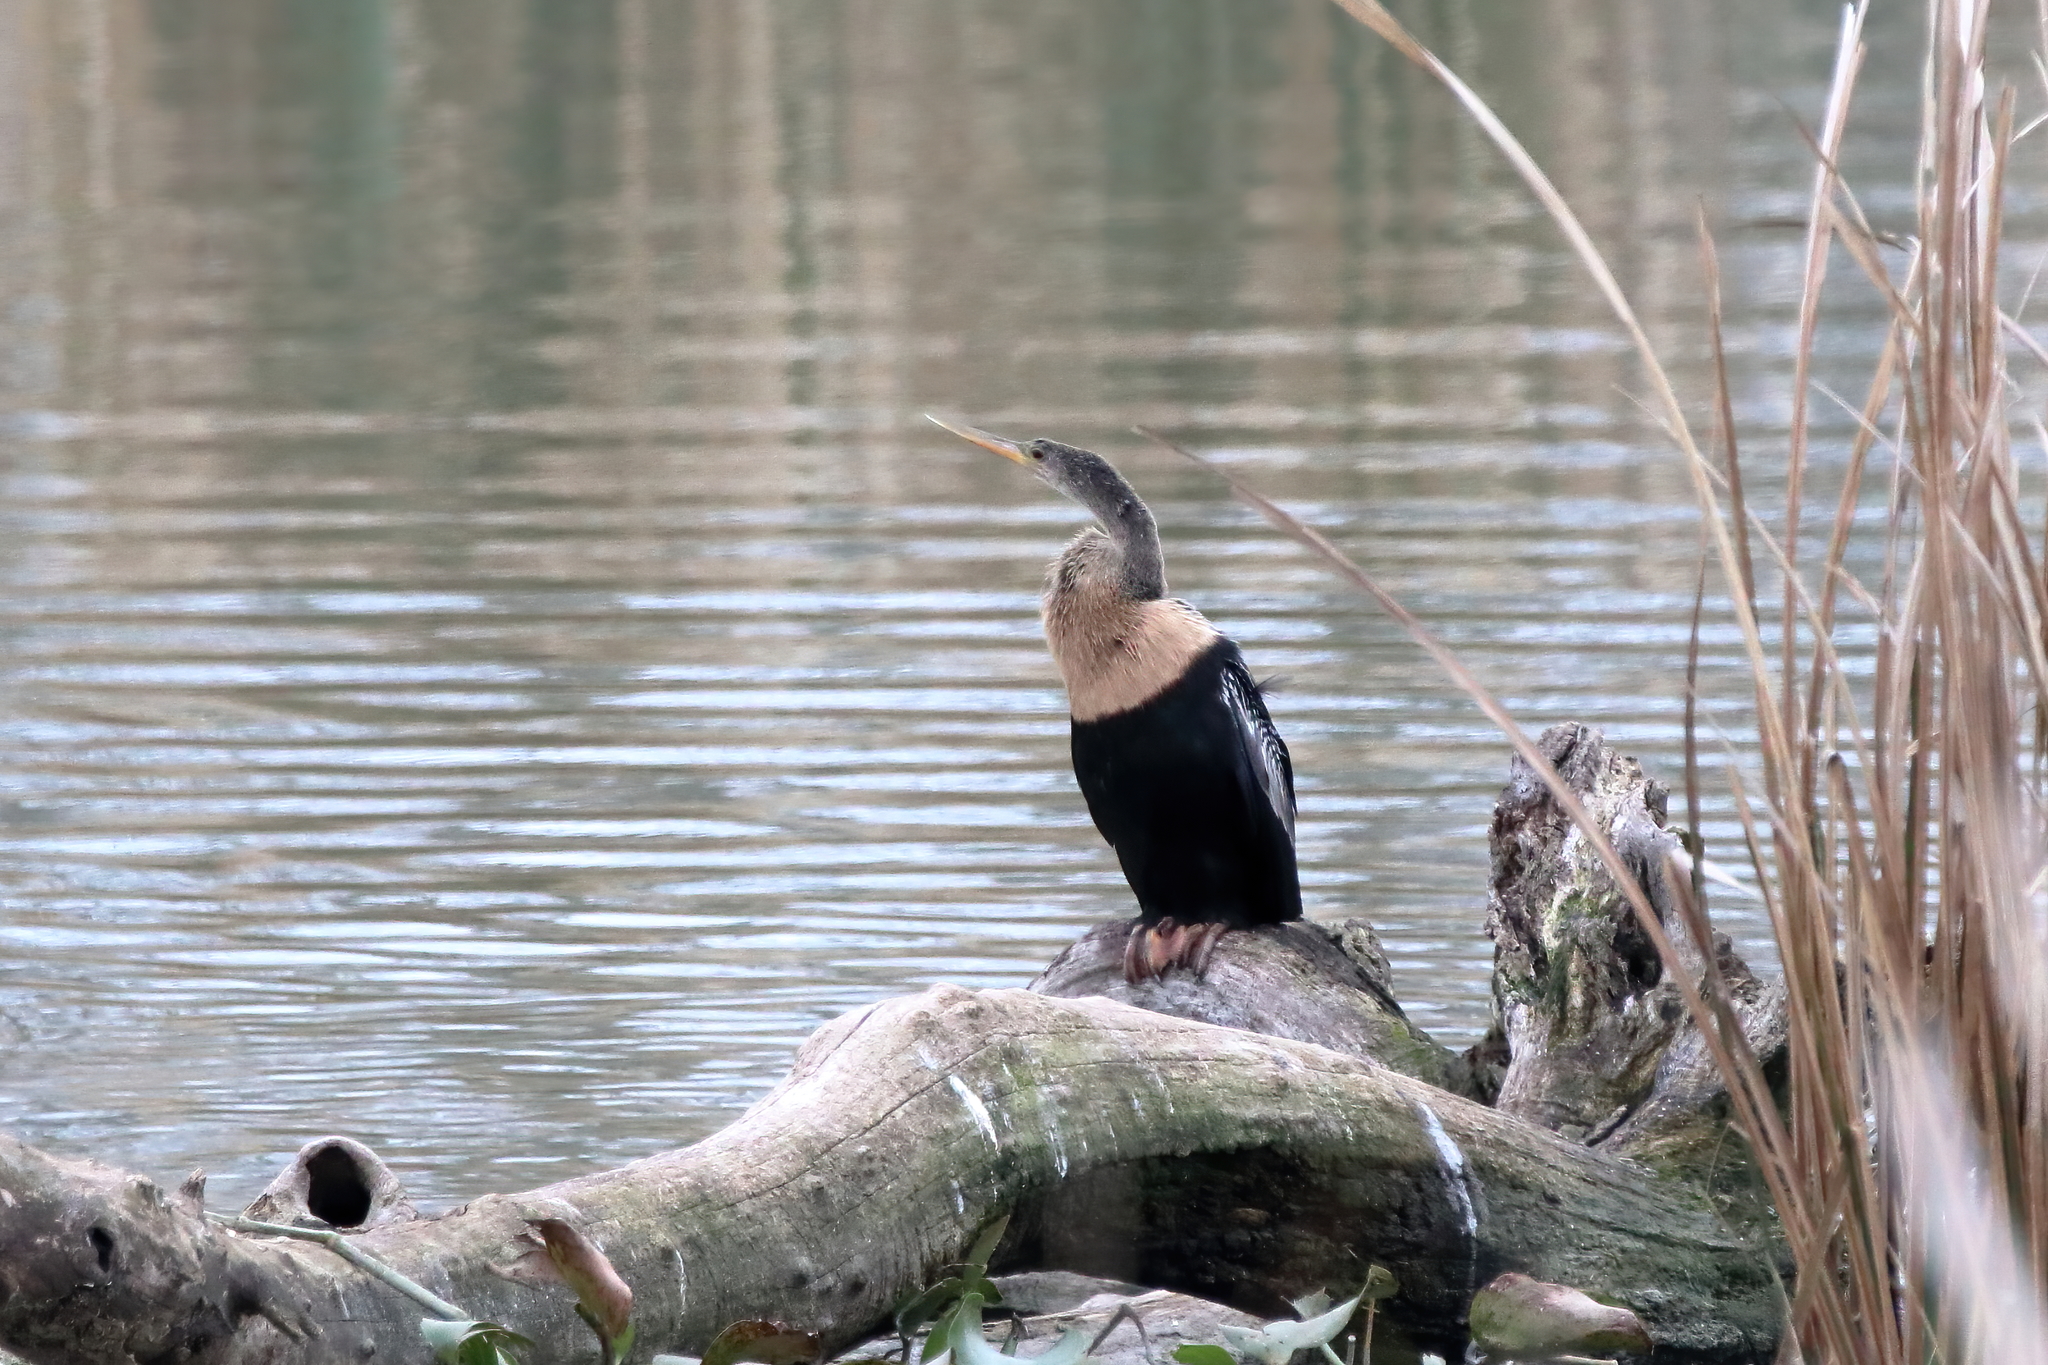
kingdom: Animalia
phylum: Chordata
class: Aves
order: Suliformes
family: Anhingidae
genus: Anhinga
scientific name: Anhinga anhinga
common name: Anhinga
